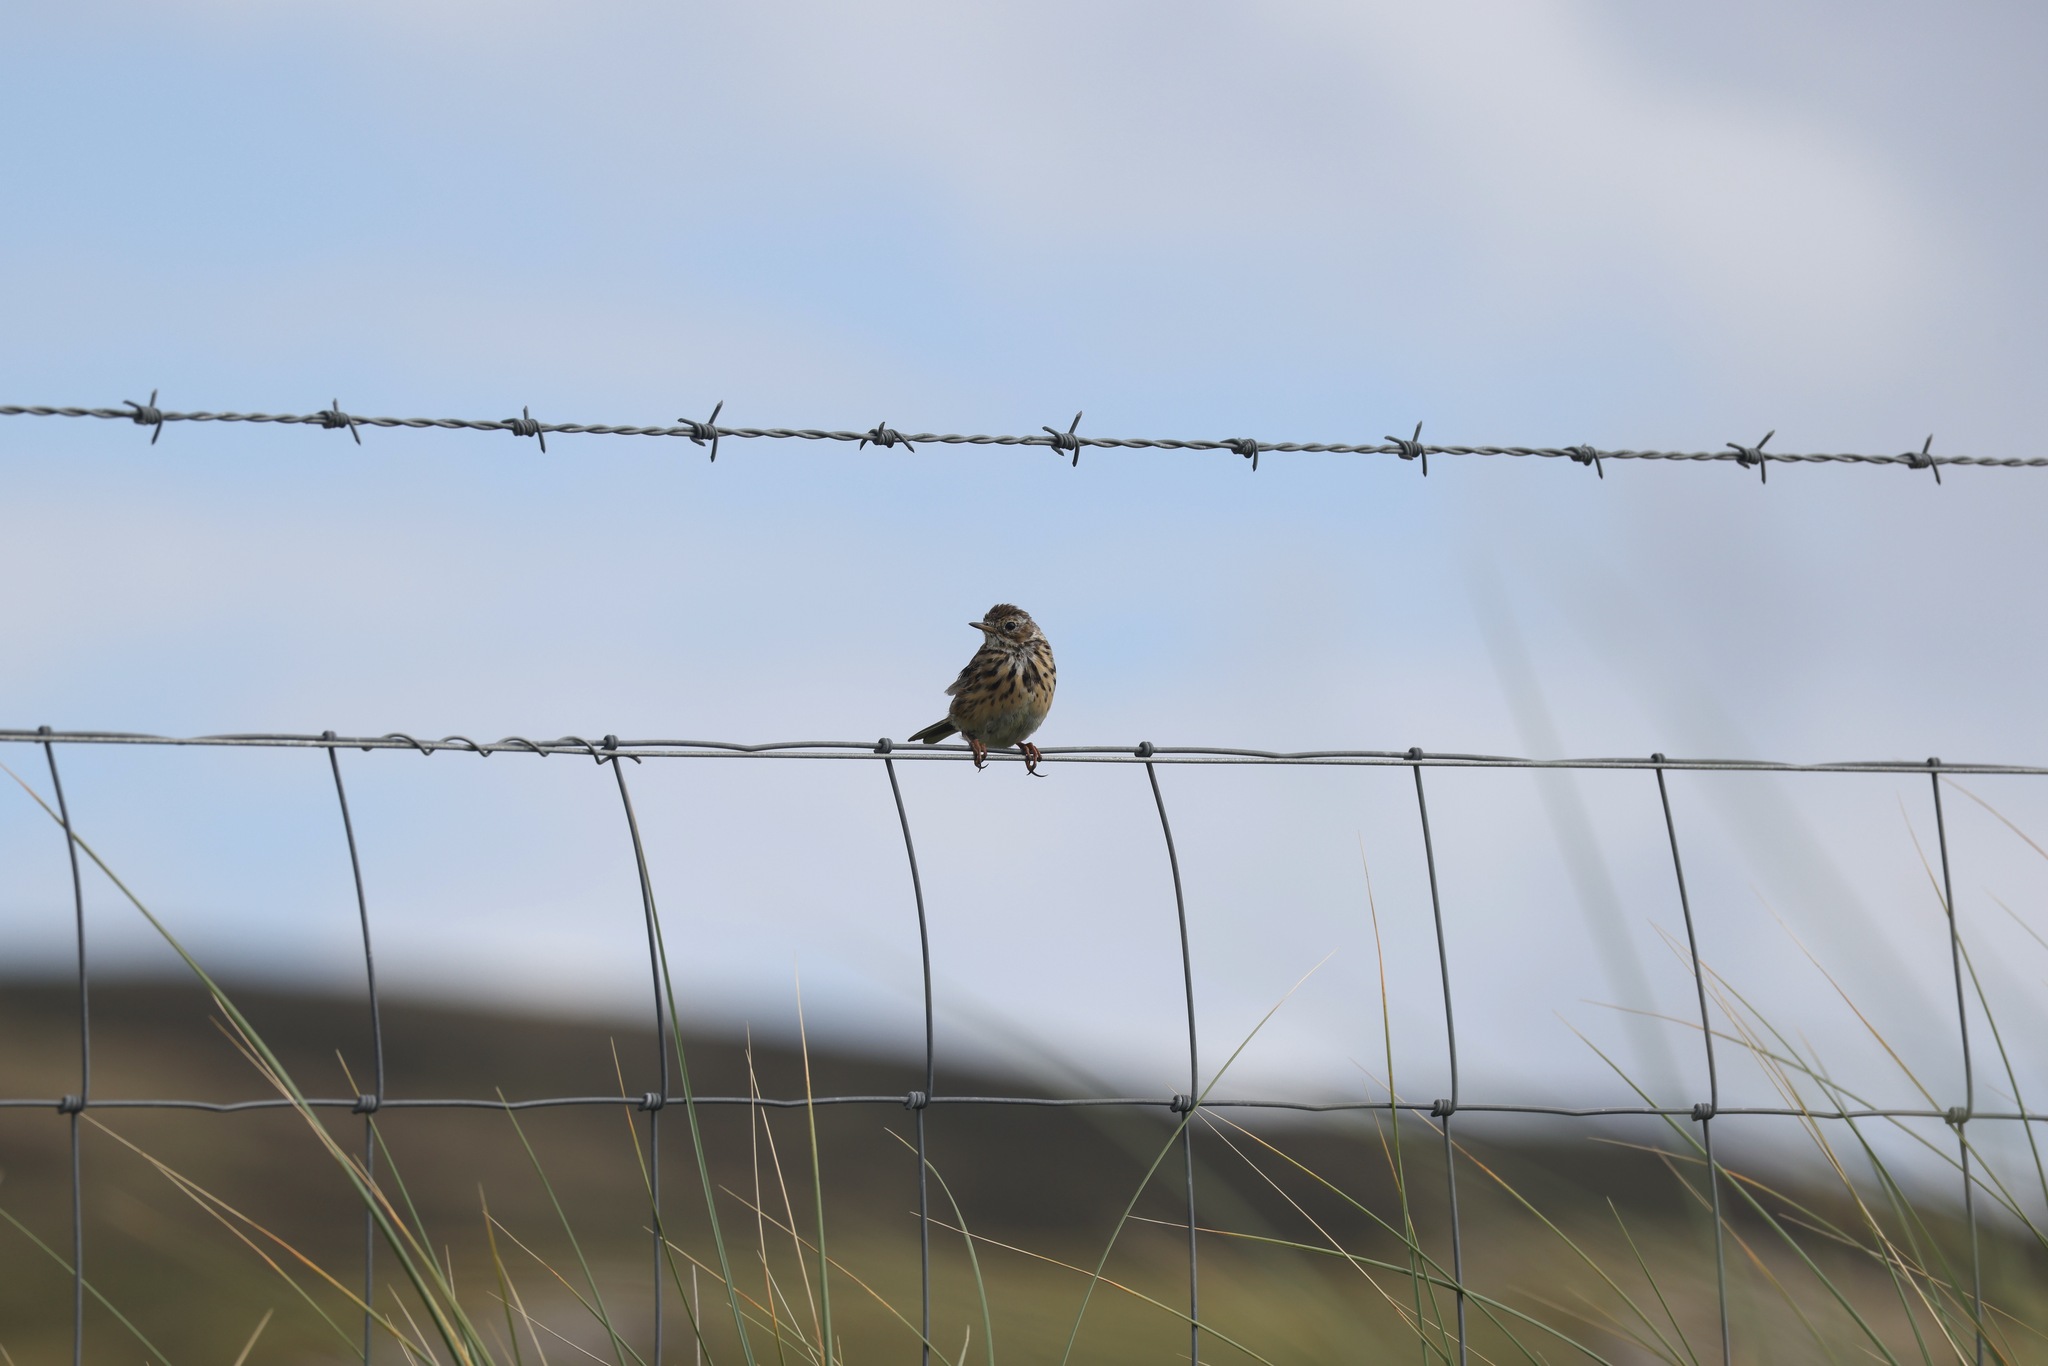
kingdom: Animalia
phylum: Chordata
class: Aves
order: Passeriformes
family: Motacillidae
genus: Anthus
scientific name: Anthus pratensis
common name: Meadow pipit
